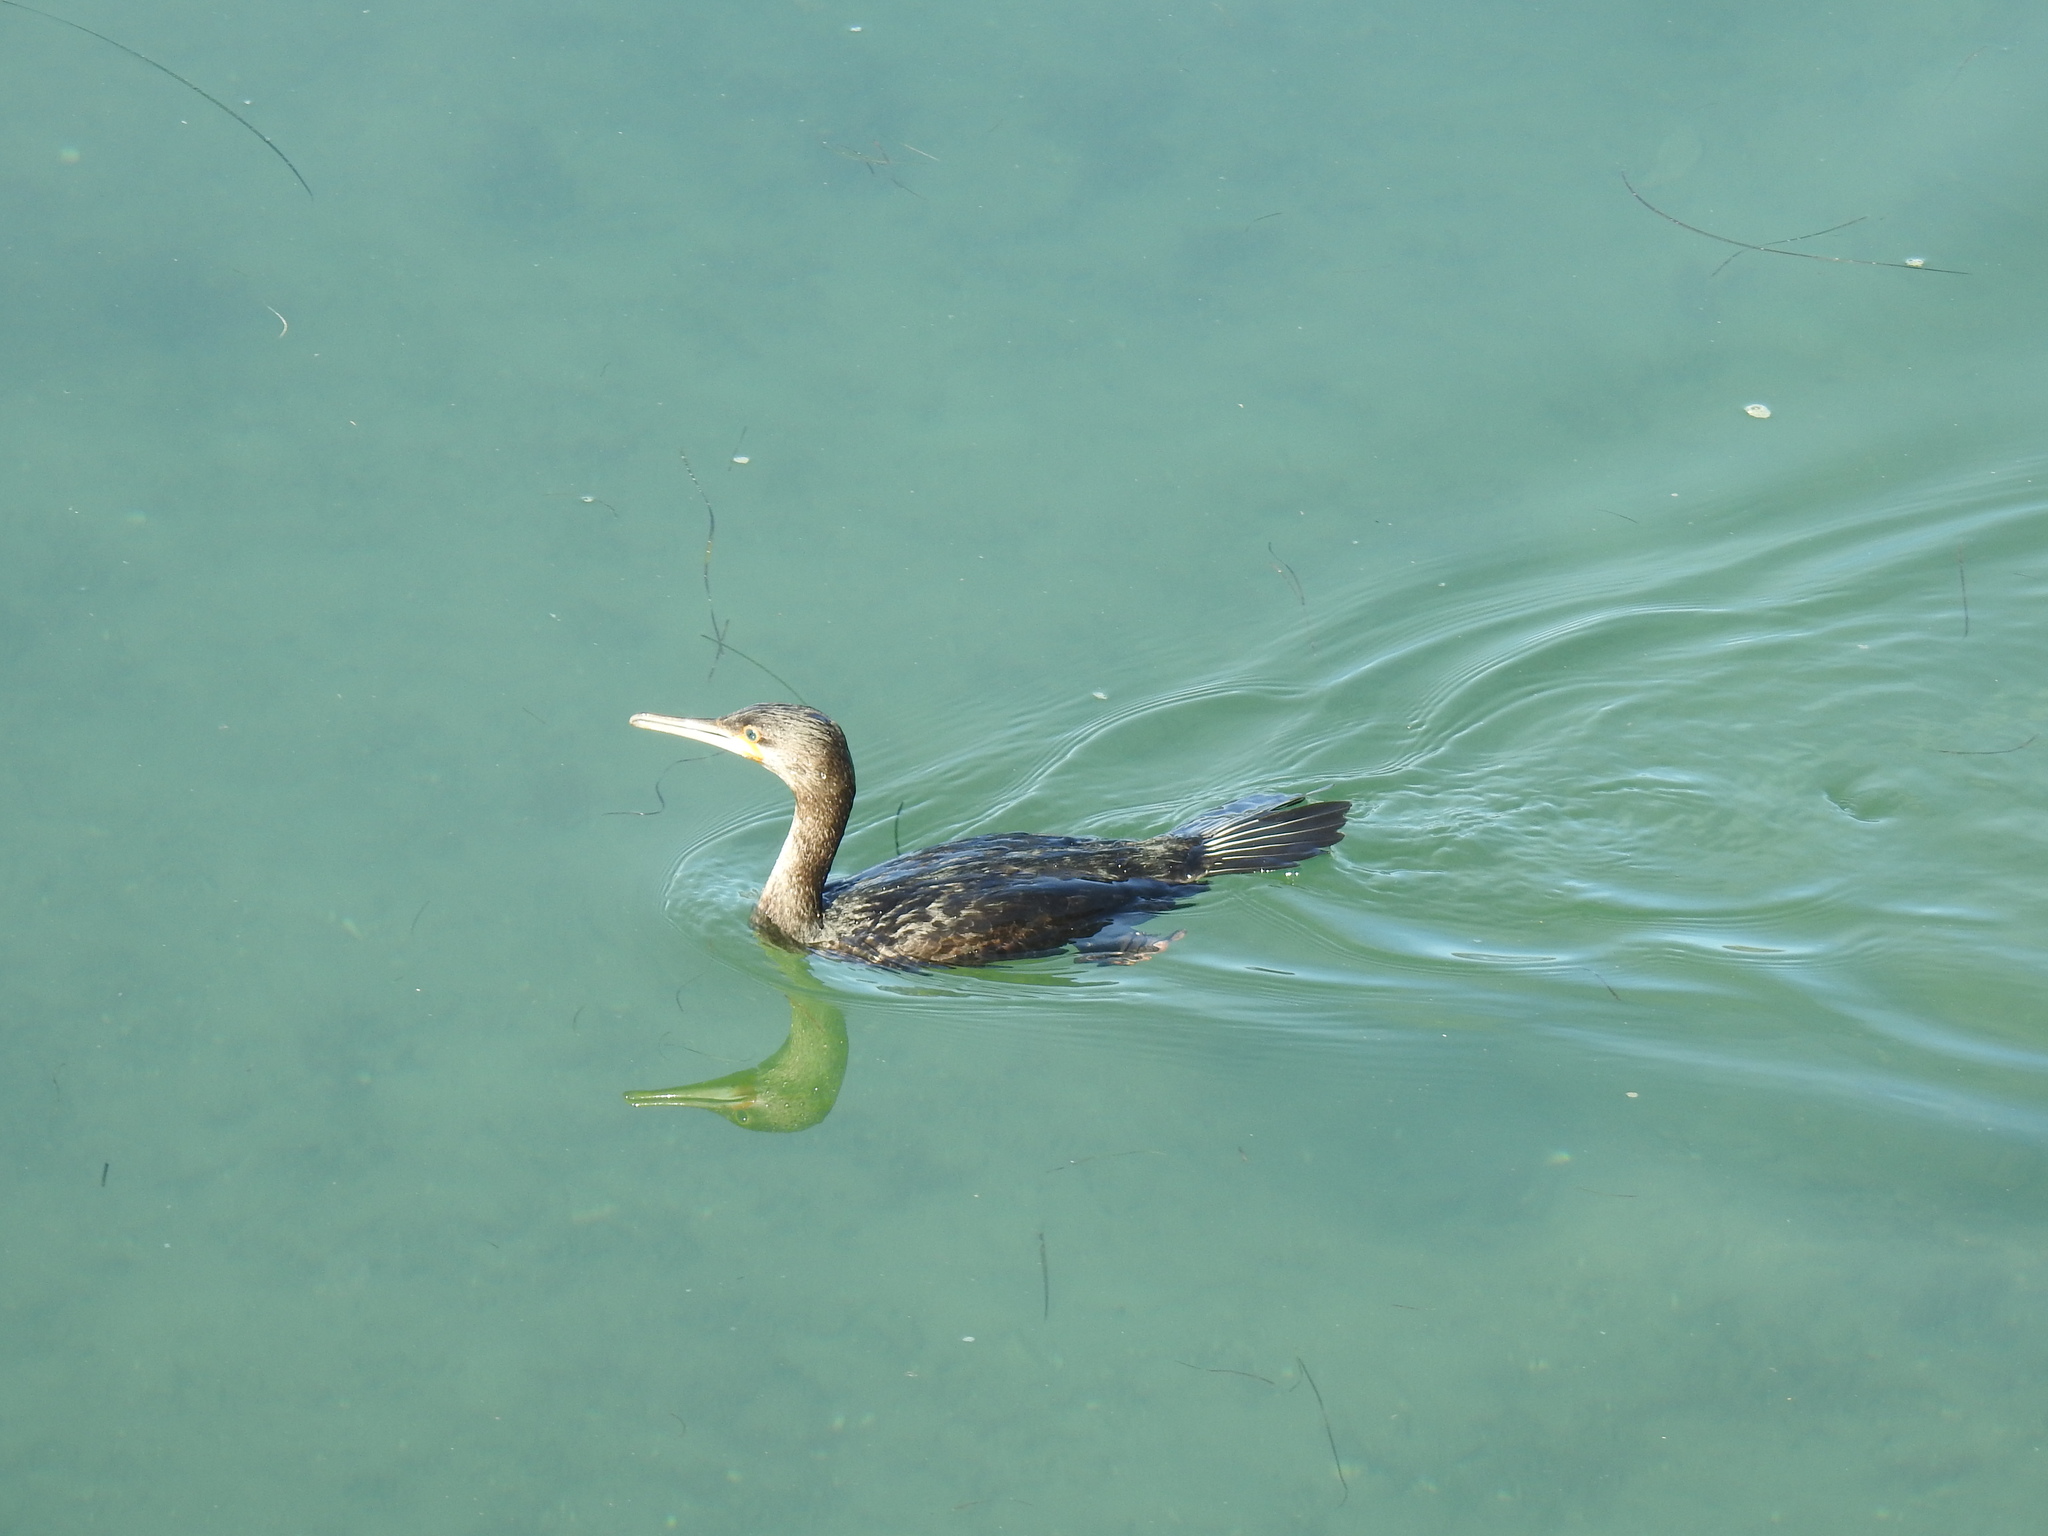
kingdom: Animalia
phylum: Chordata
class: Aves
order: Suliformes
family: Phalacrocoracidae
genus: Phalacrocorax
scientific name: Phalacrocorax capensis
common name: Cape cormorant
